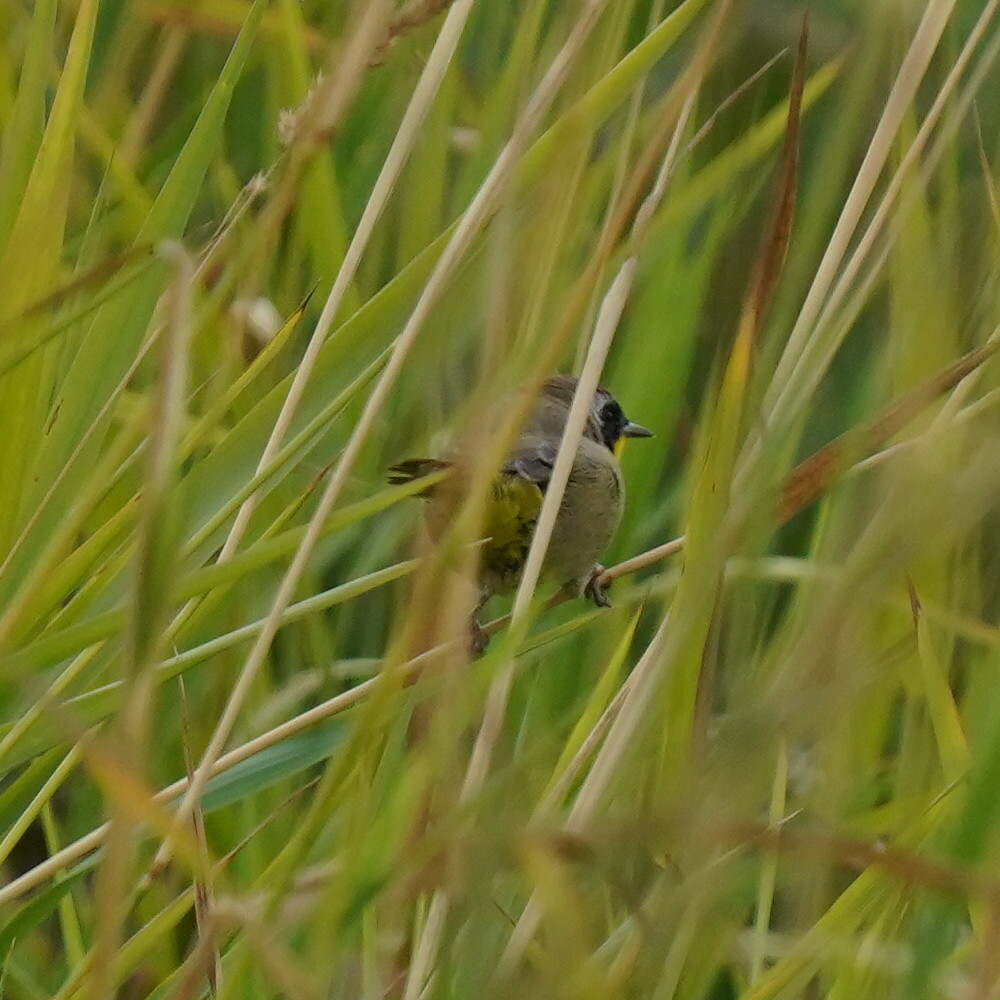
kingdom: Animalia
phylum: Chordata
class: Aves
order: Passeriformes
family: Parulidae
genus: Geothlypis
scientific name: Geothlypis trichas
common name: Common yellowthroat
